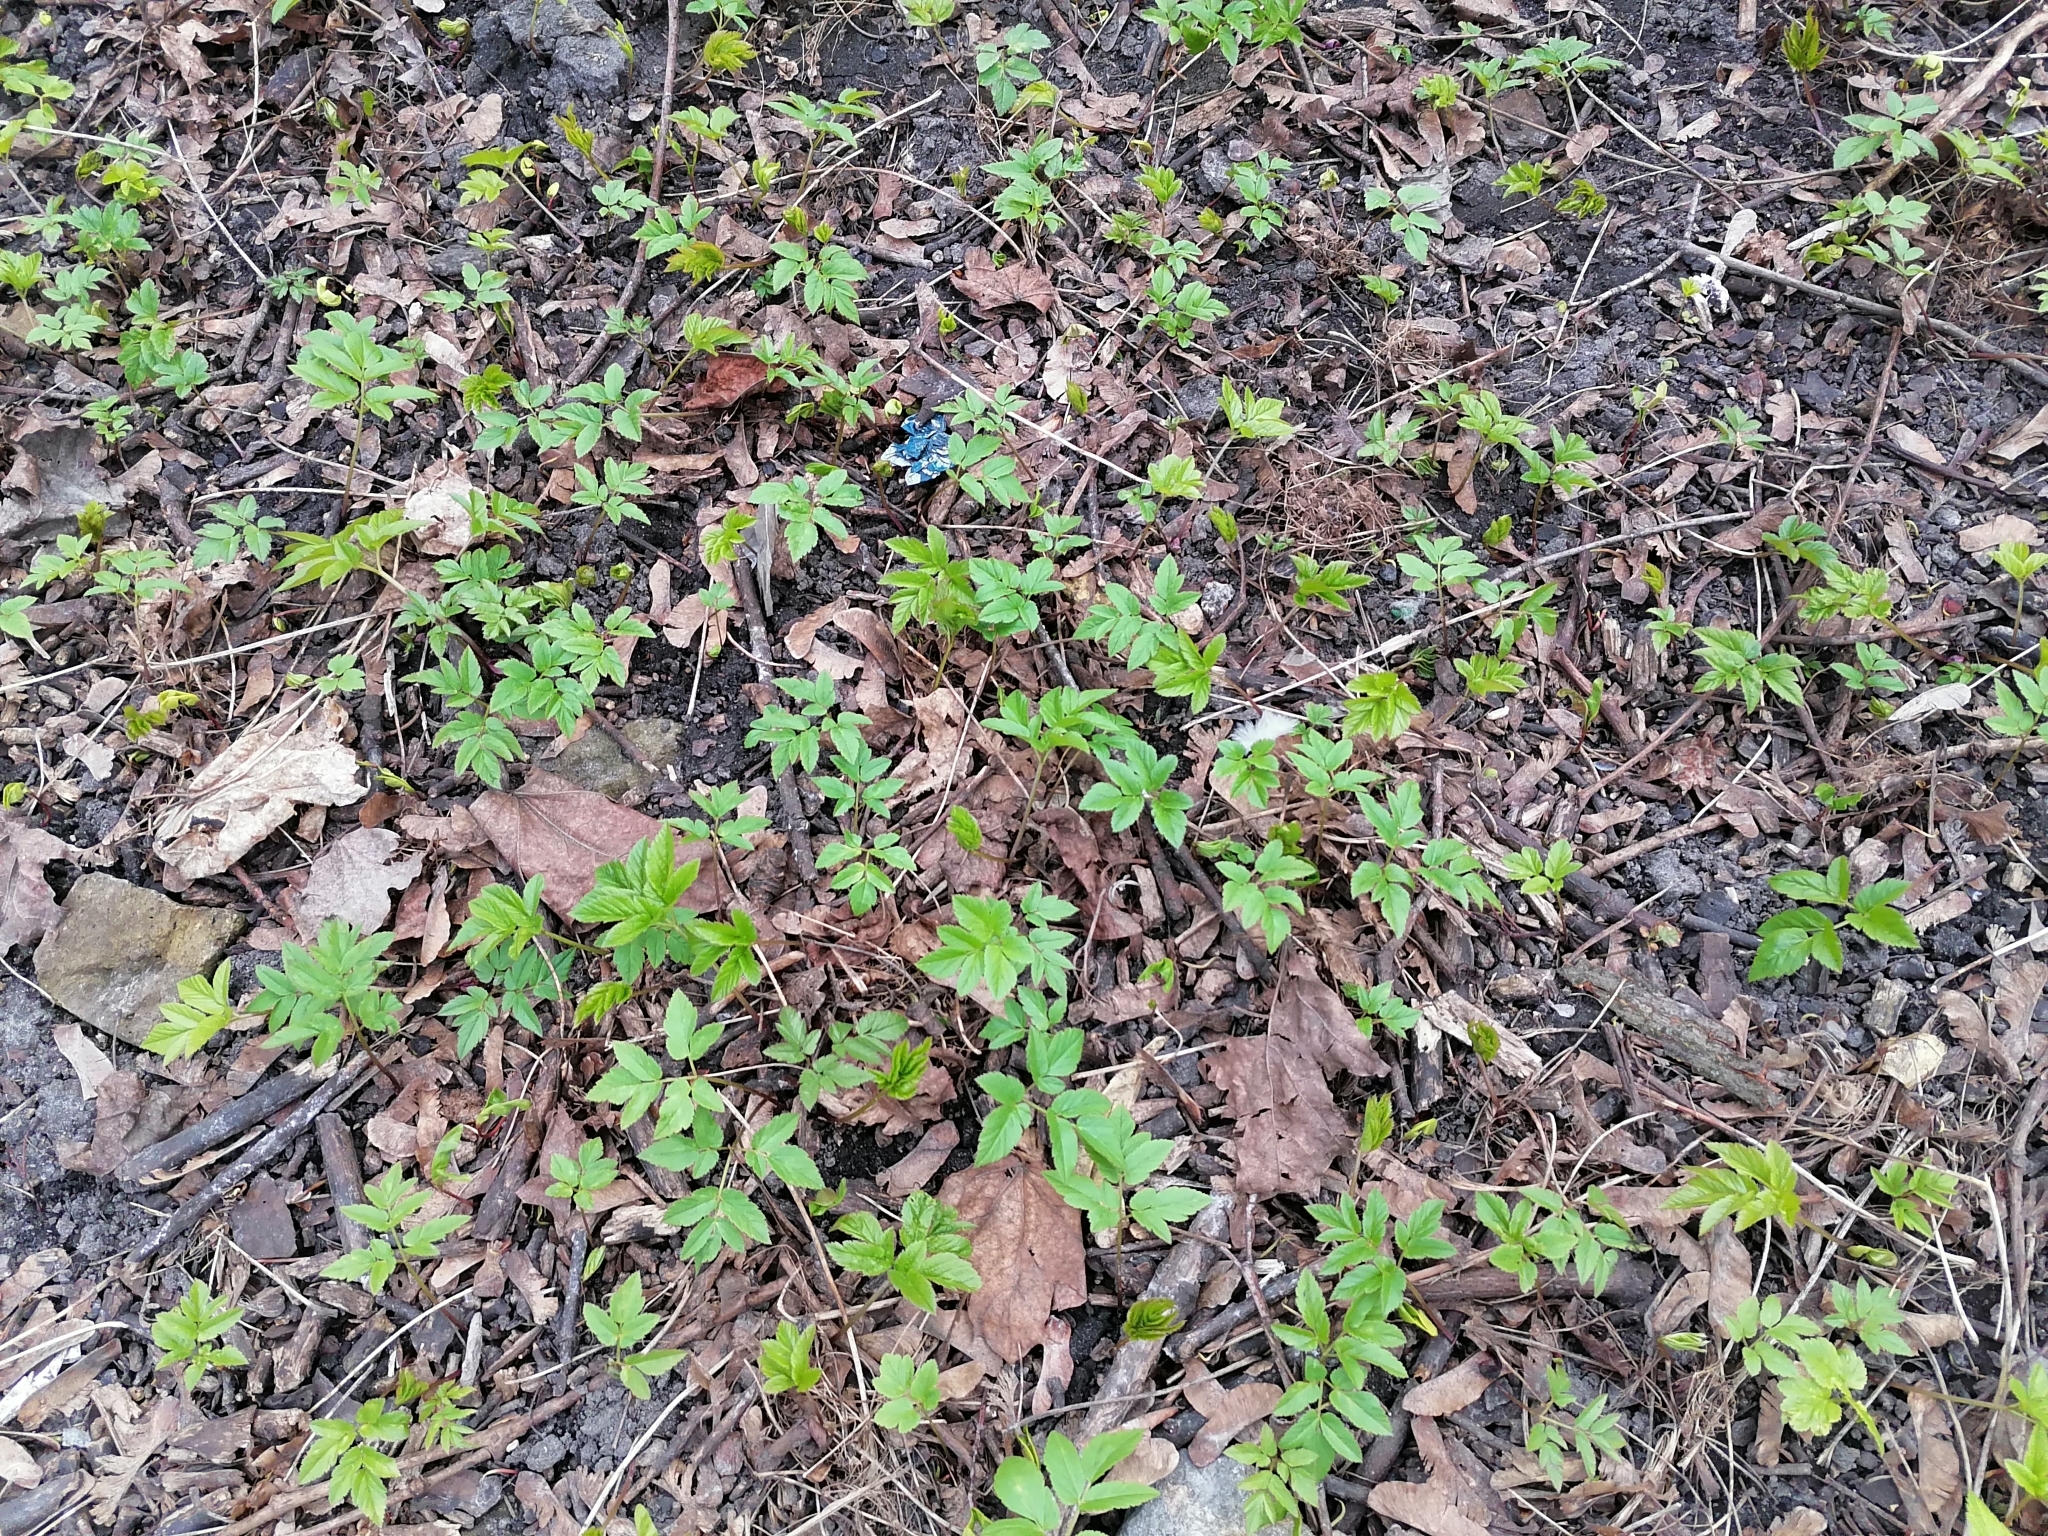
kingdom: Plantae
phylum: Tracheophyta
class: Magnoliopsida
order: Apiales
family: Apiaceae
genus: Aegopodium
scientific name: Aegopodium podagraria
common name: Ground-elder
